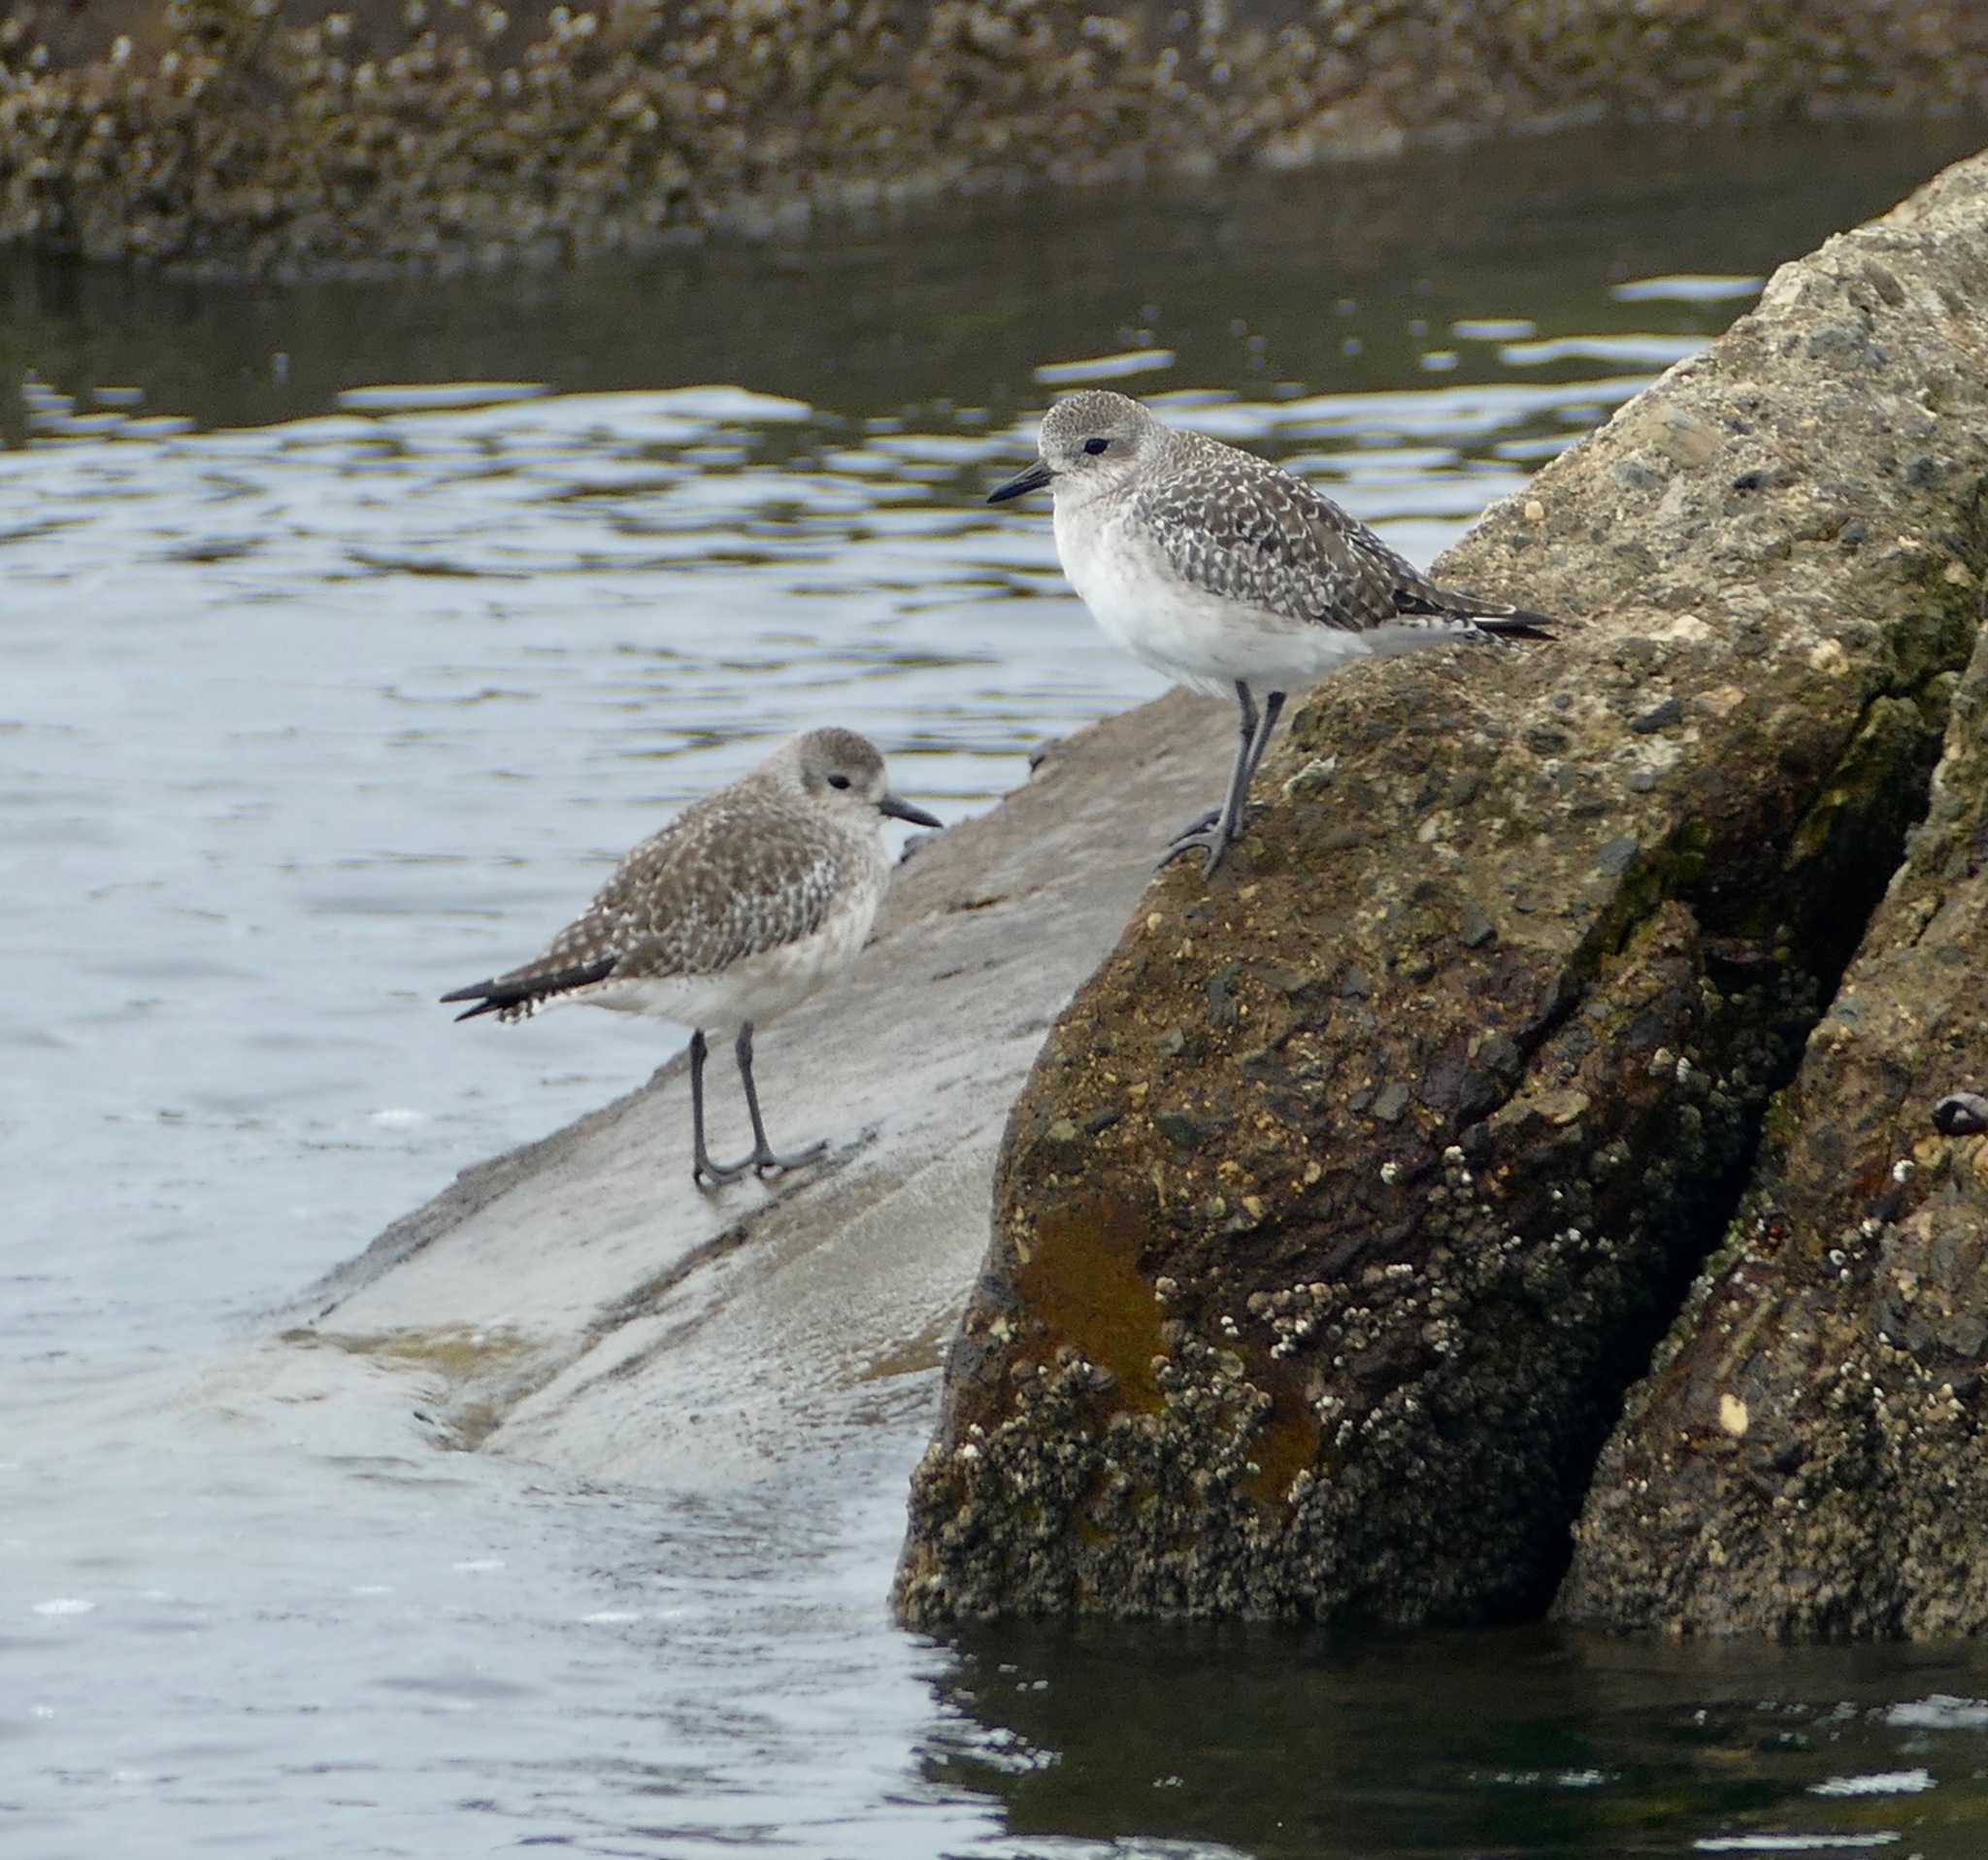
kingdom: Animalia
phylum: Chordata
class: Aves
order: Charadriiformes
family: Charadriidae
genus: Pluvialis
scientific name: Pluvialis squatarola
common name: Grey plover
